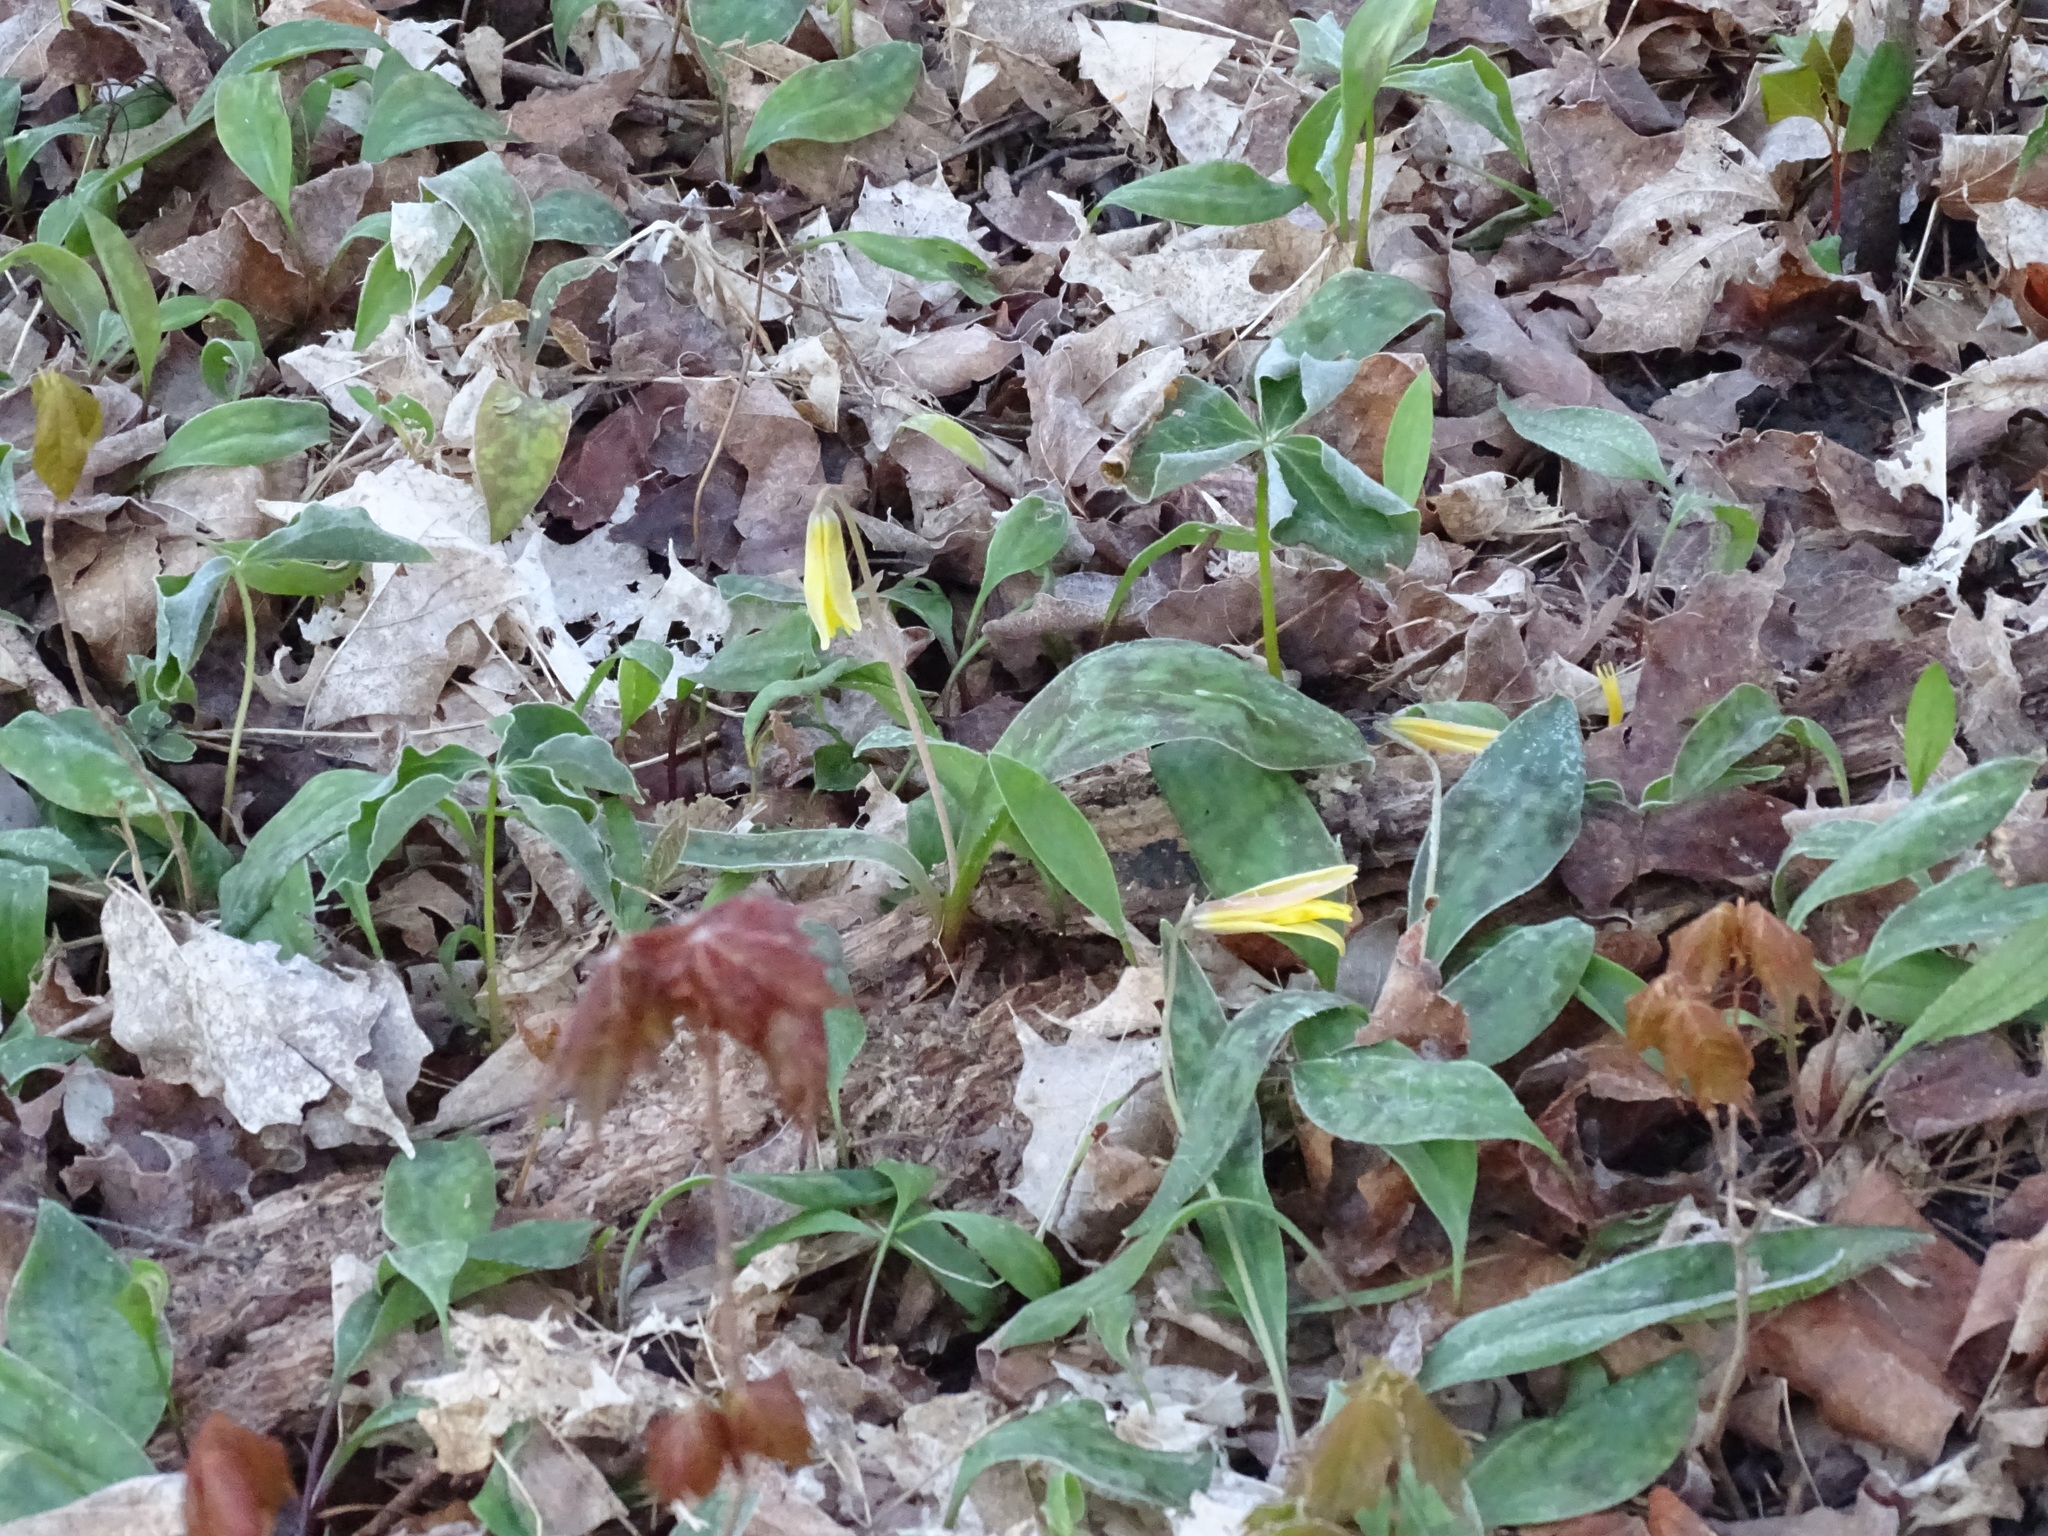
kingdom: Plantae
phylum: Tracheophyta
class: Liliopsida
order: Liliales
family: Liliaceae
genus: Erythronium
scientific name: Erythronium americanum
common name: Yellow adder's-tongue
